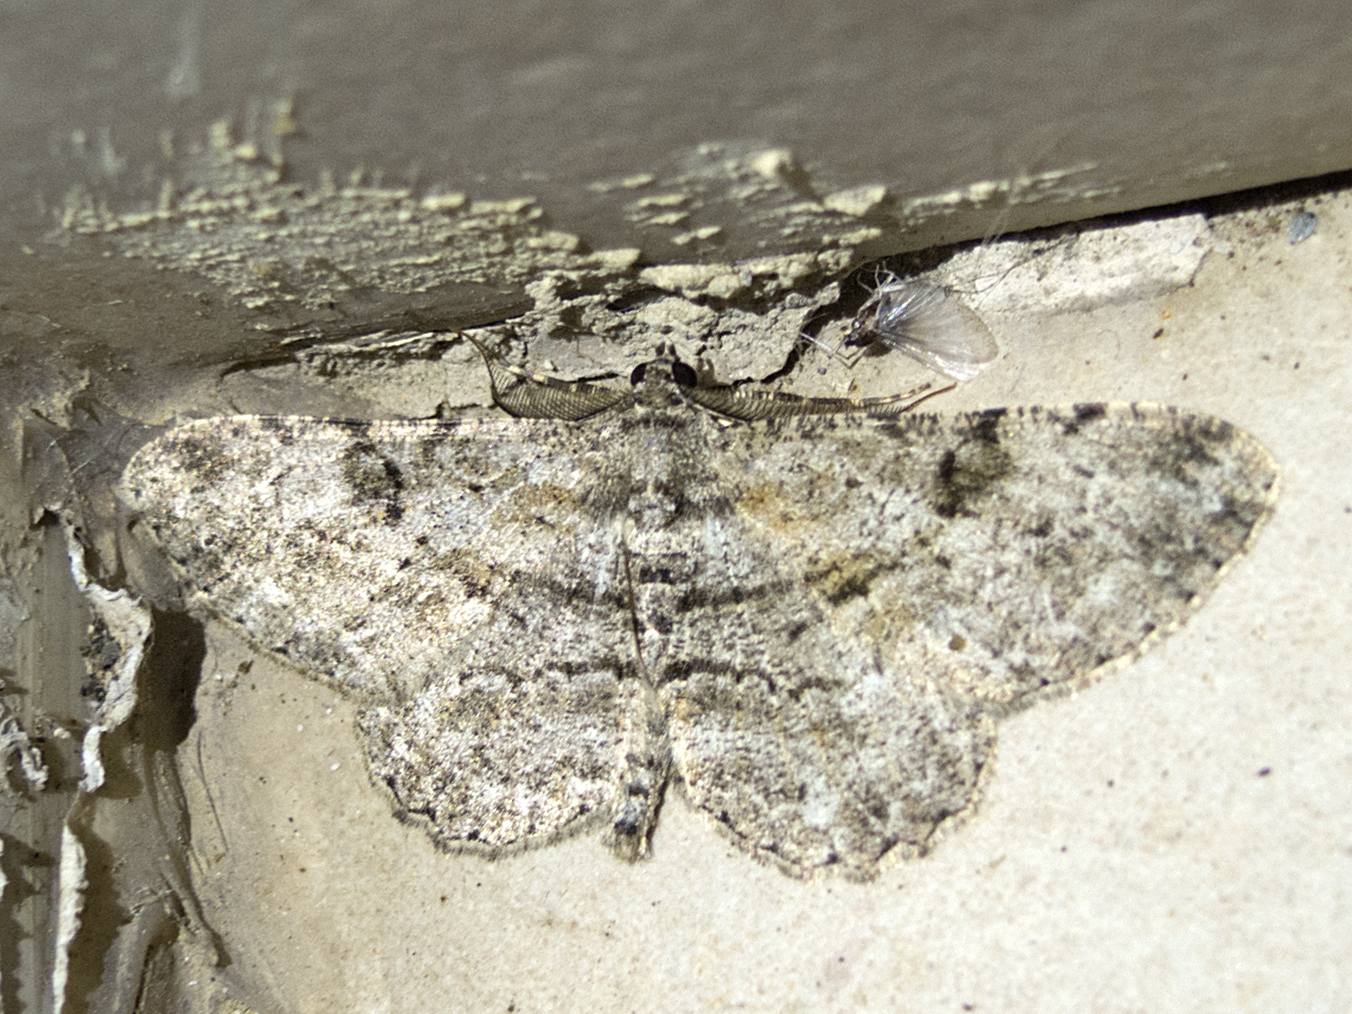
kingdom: Animalia
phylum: Arthropoda
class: Insecta
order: Lepidoptera
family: Geometridae
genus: Peribatodes
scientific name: Peribatodes rhomboidaria
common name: Willow beauty
